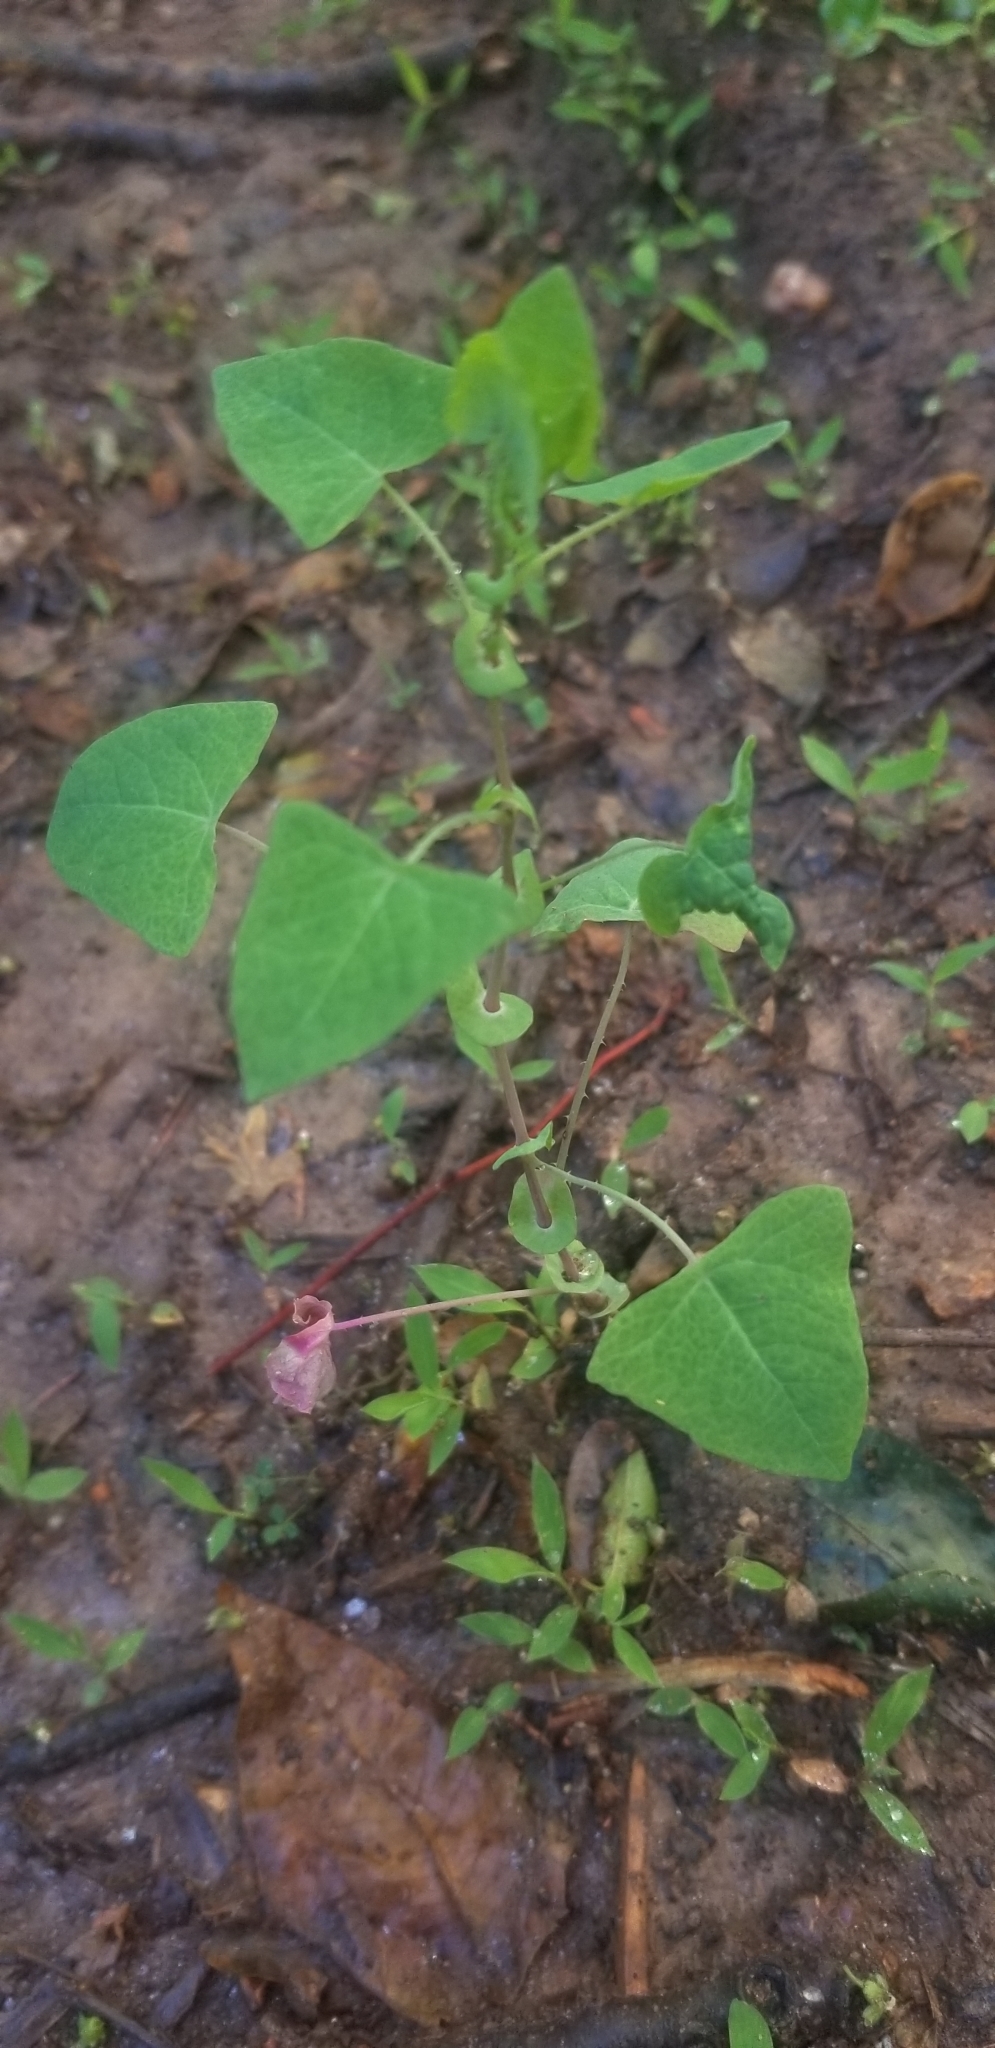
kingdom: Plantae
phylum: Tracheophyta
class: Magnoliopsida
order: Caryophyllales
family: Polygonaceae
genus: Persicaria
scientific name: Persicaria perfoliata
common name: Asiatic tearthumb
